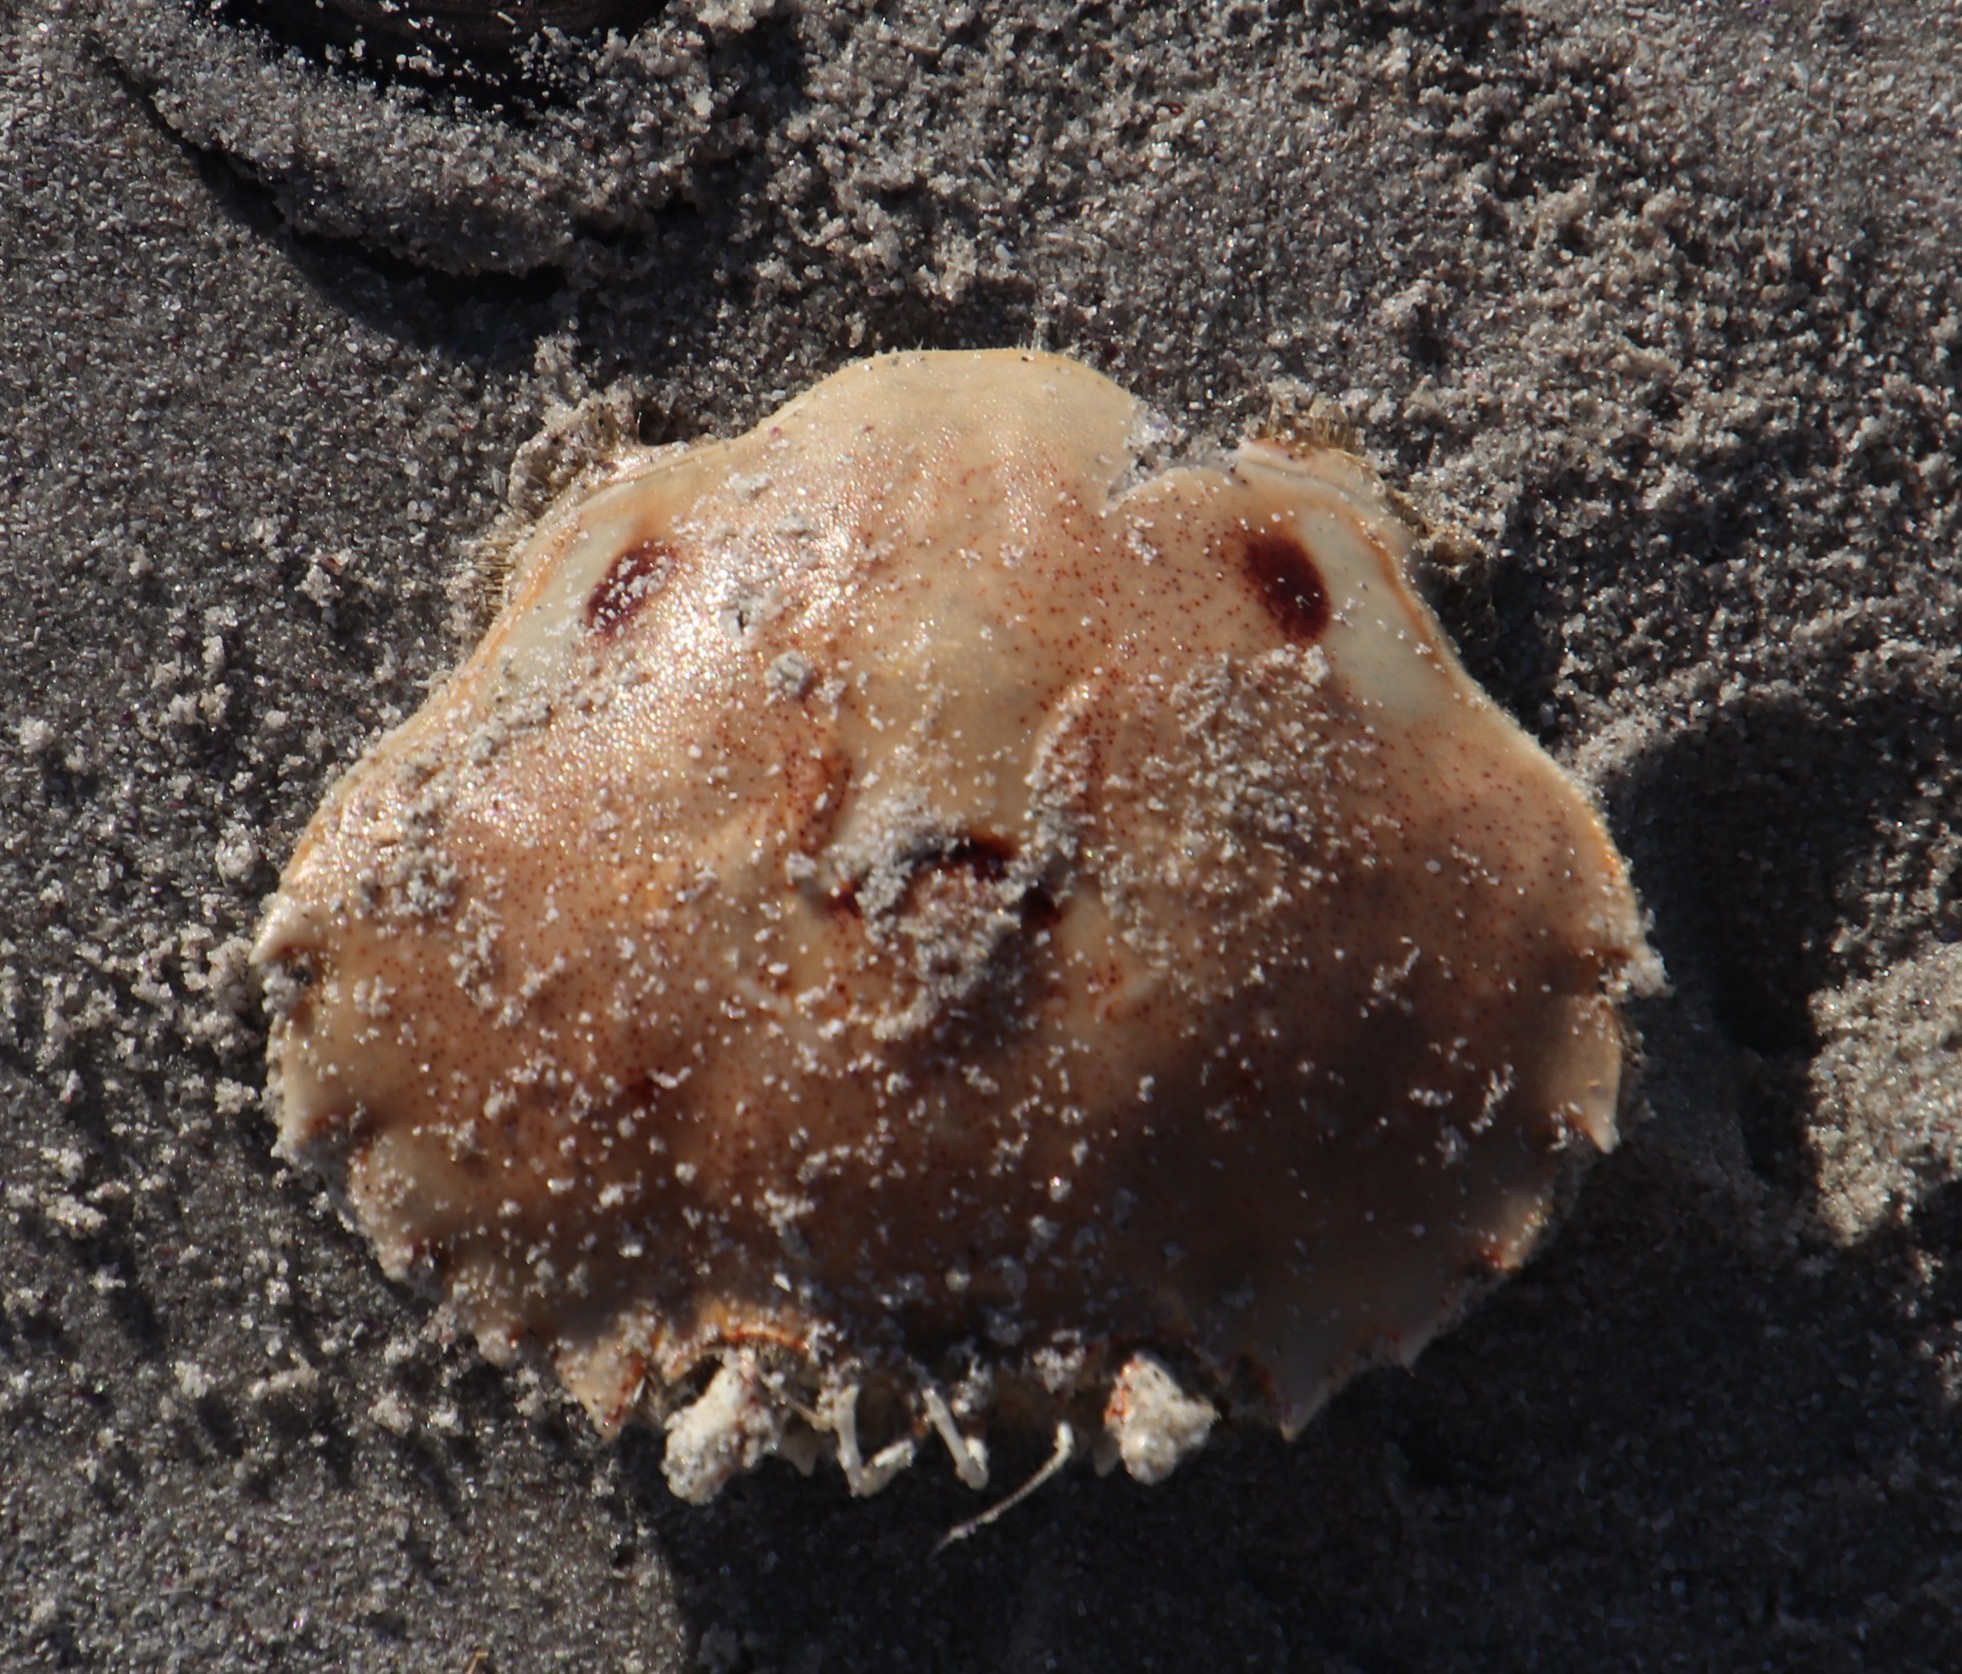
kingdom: Animalia
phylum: Arthropoda
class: Malacostraca
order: Decapoda
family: Ovalipidae
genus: Ovalipes
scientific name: Ovalipes trimaculatus
